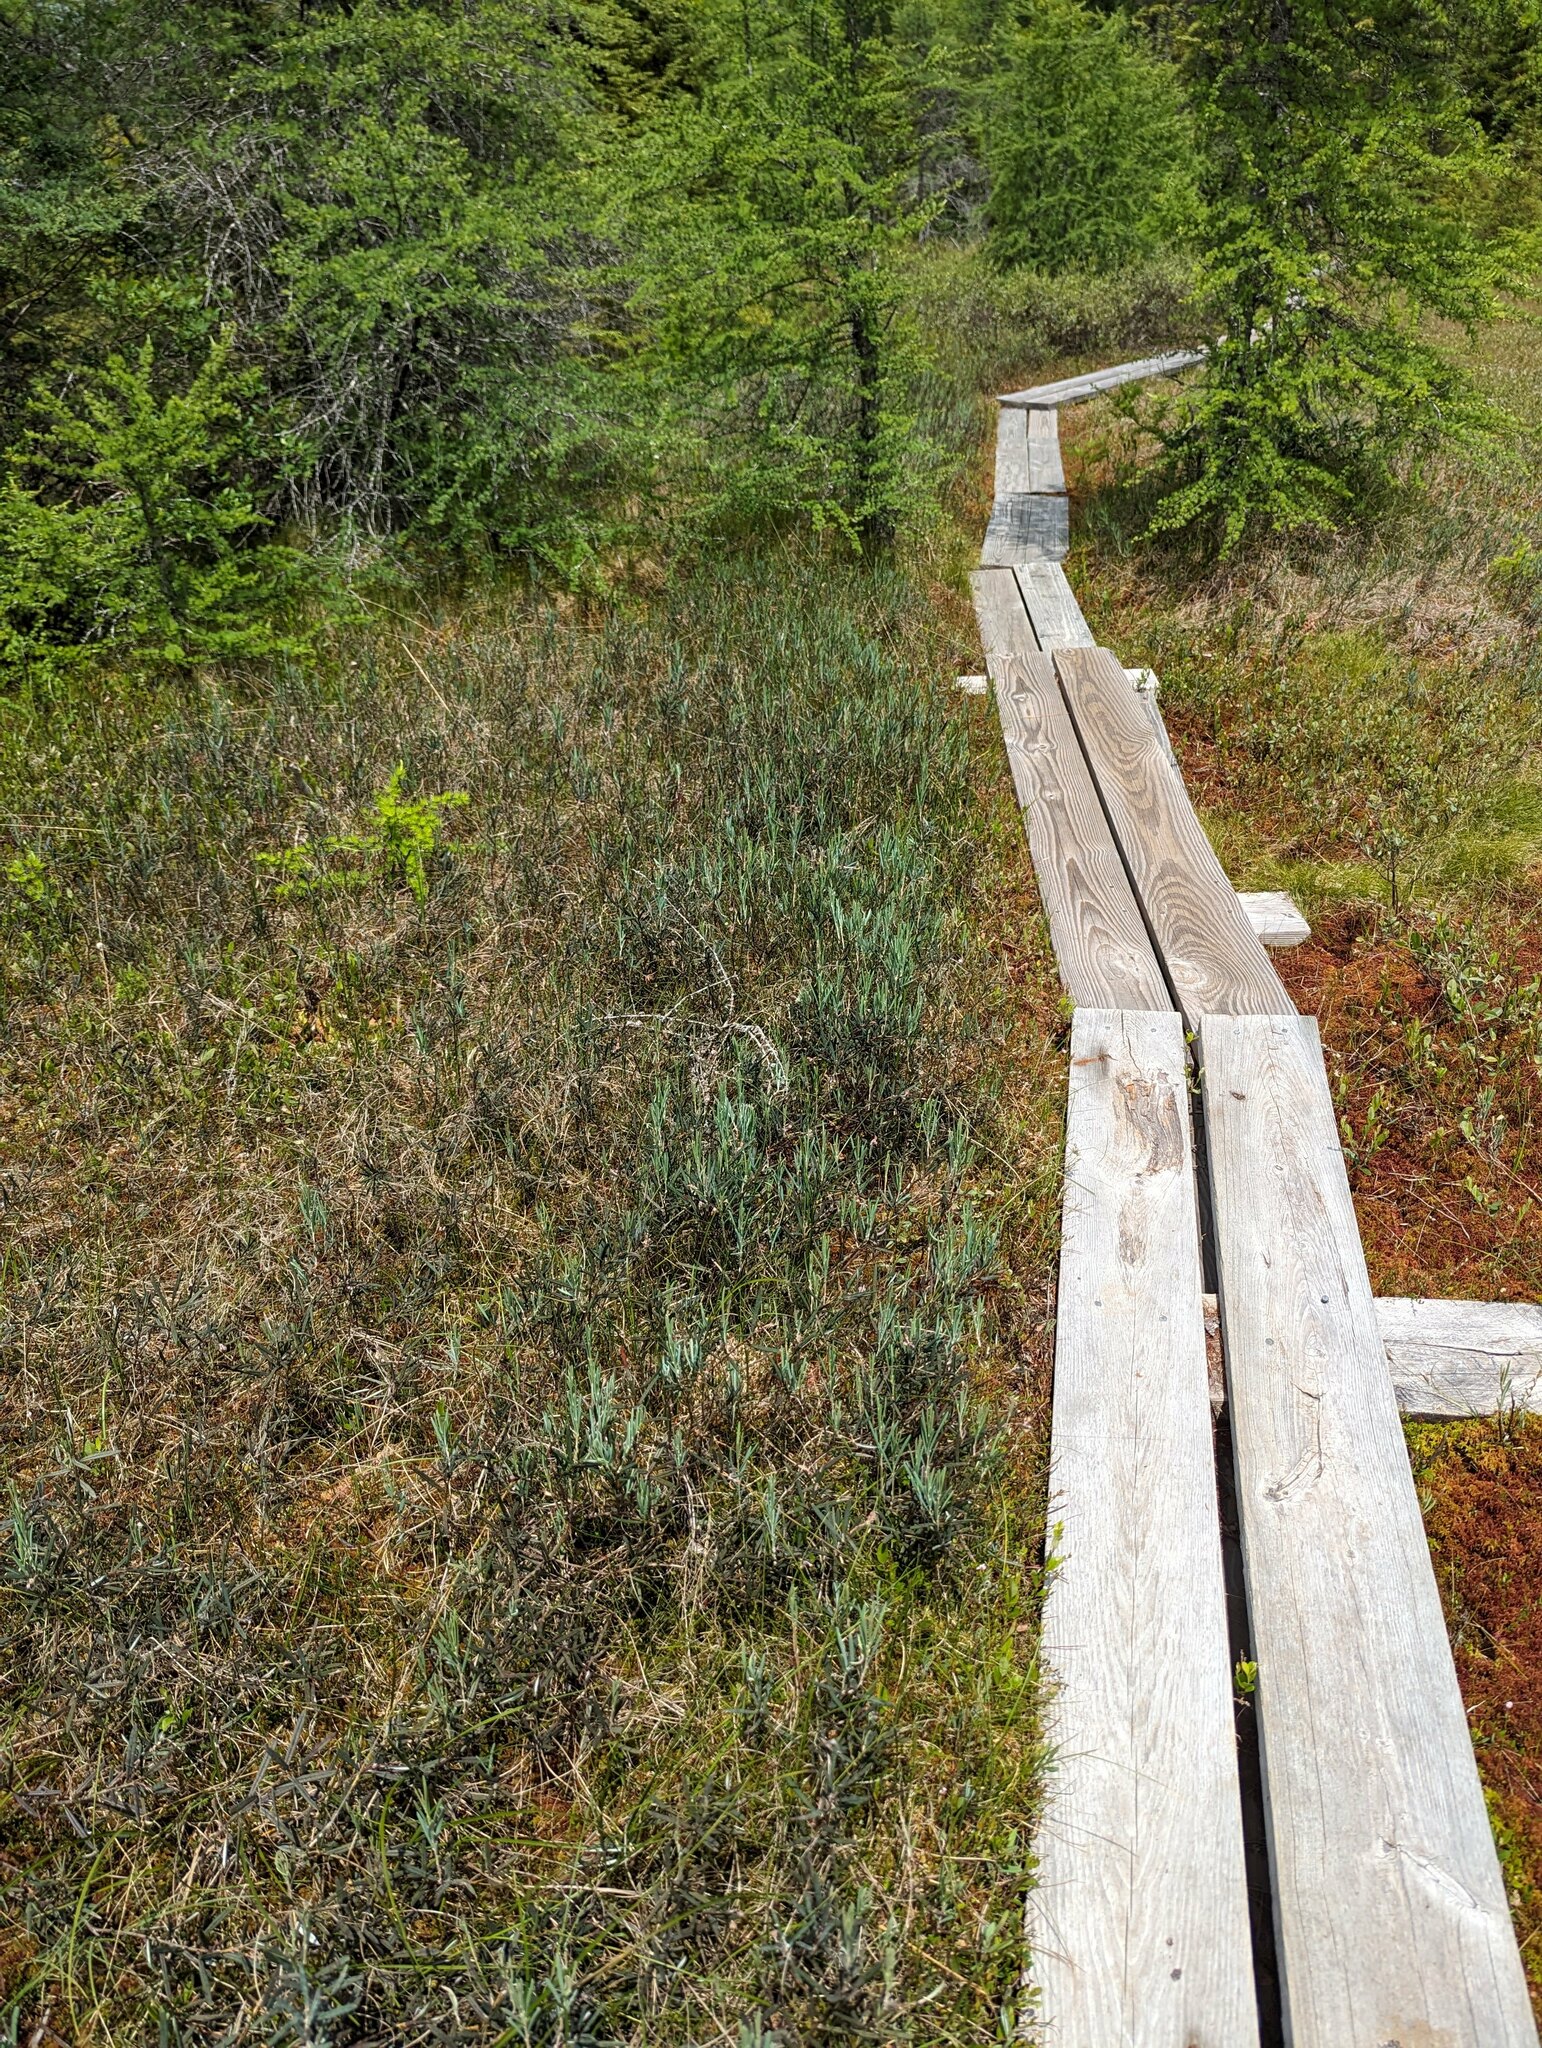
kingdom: Plantae
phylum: Tracheophyta
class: Magnoliopsida
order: Ericales
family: Ericaceae
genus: Andromeda
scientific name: Andromeda polifolia
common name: Bog-rosemary
